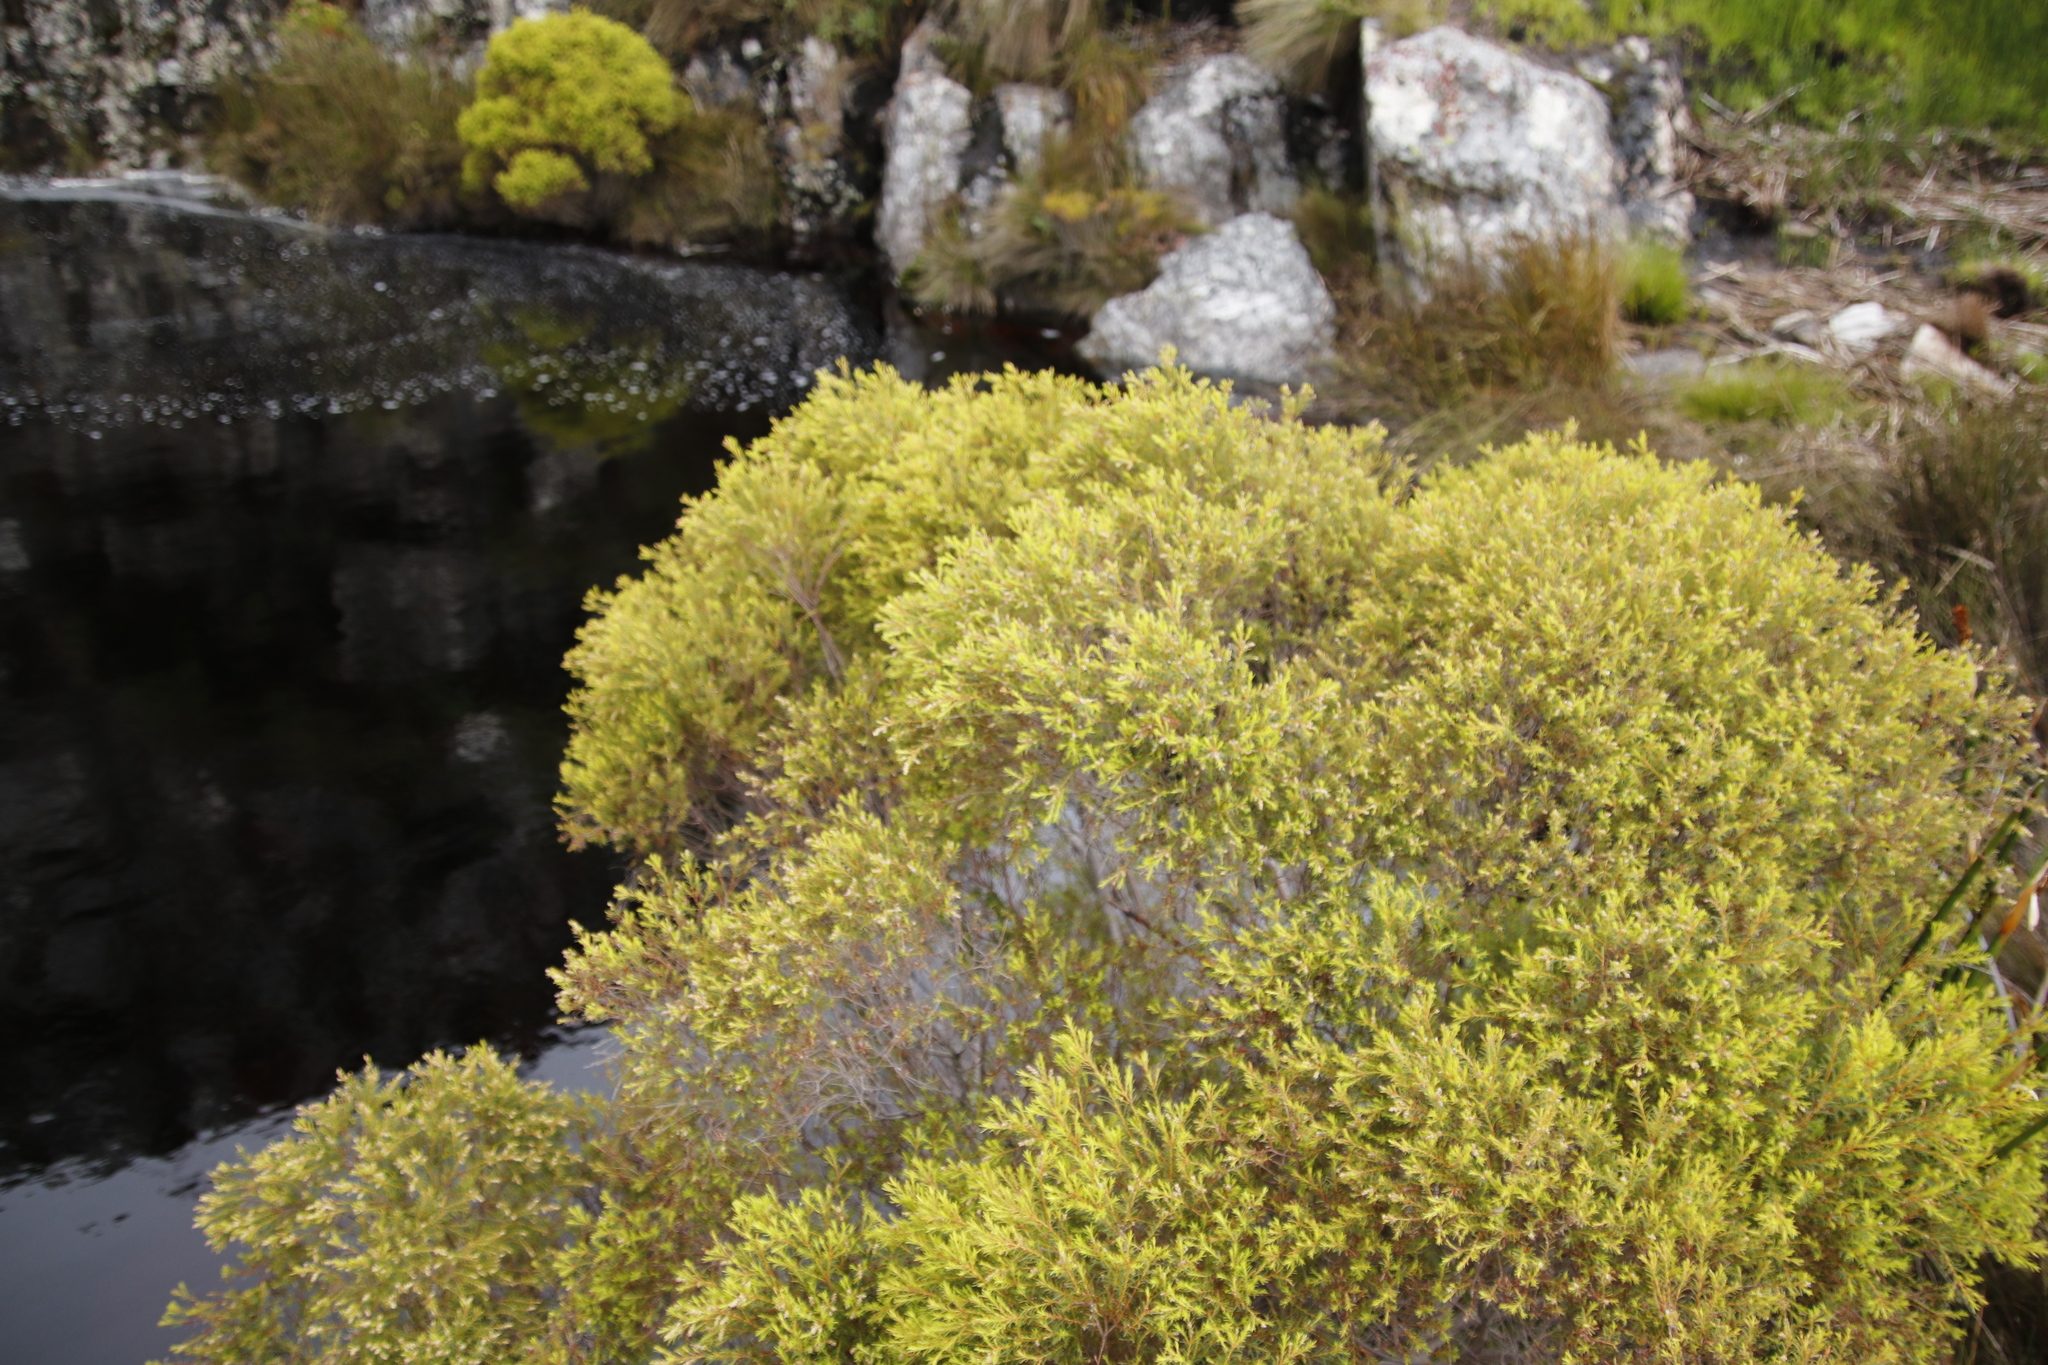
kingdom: Plantae
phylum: Tracheophyta
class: Magnoliopsida
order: Bruniales
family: Bruniaceae
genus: Brunia
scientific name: Brunia africana
